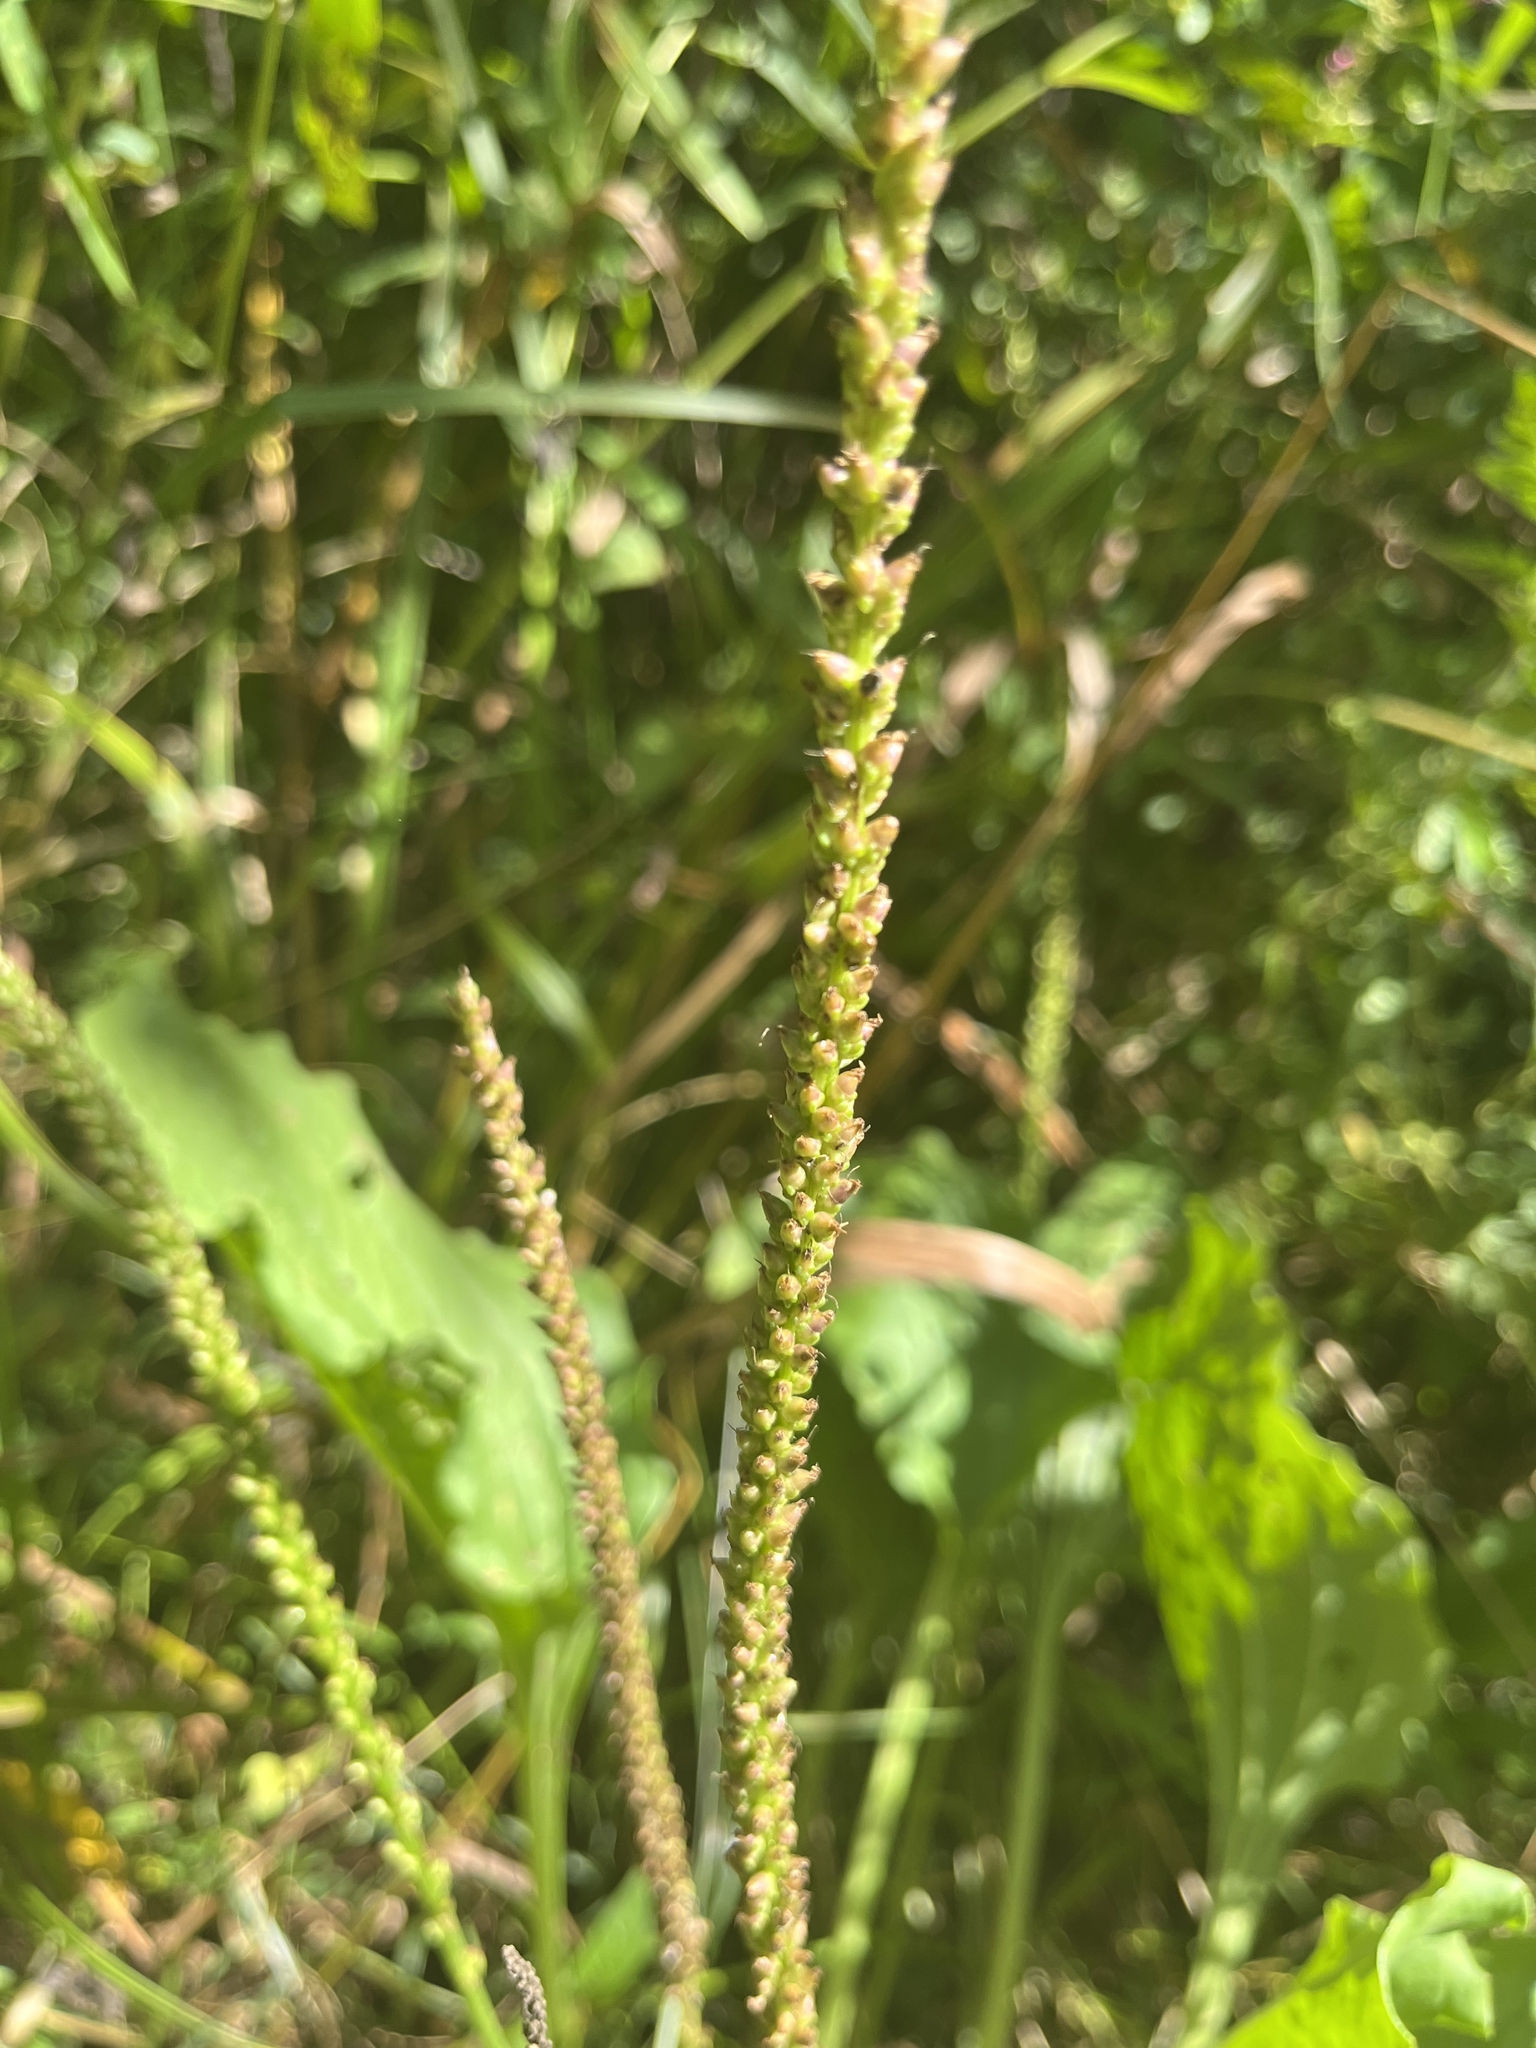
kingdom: Plantae
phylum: Tracheophyta
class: Magnoliopsida
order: Lamiales
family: Plantaginaceae
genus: Plantago
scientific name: Plantago major
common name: Common plantain
